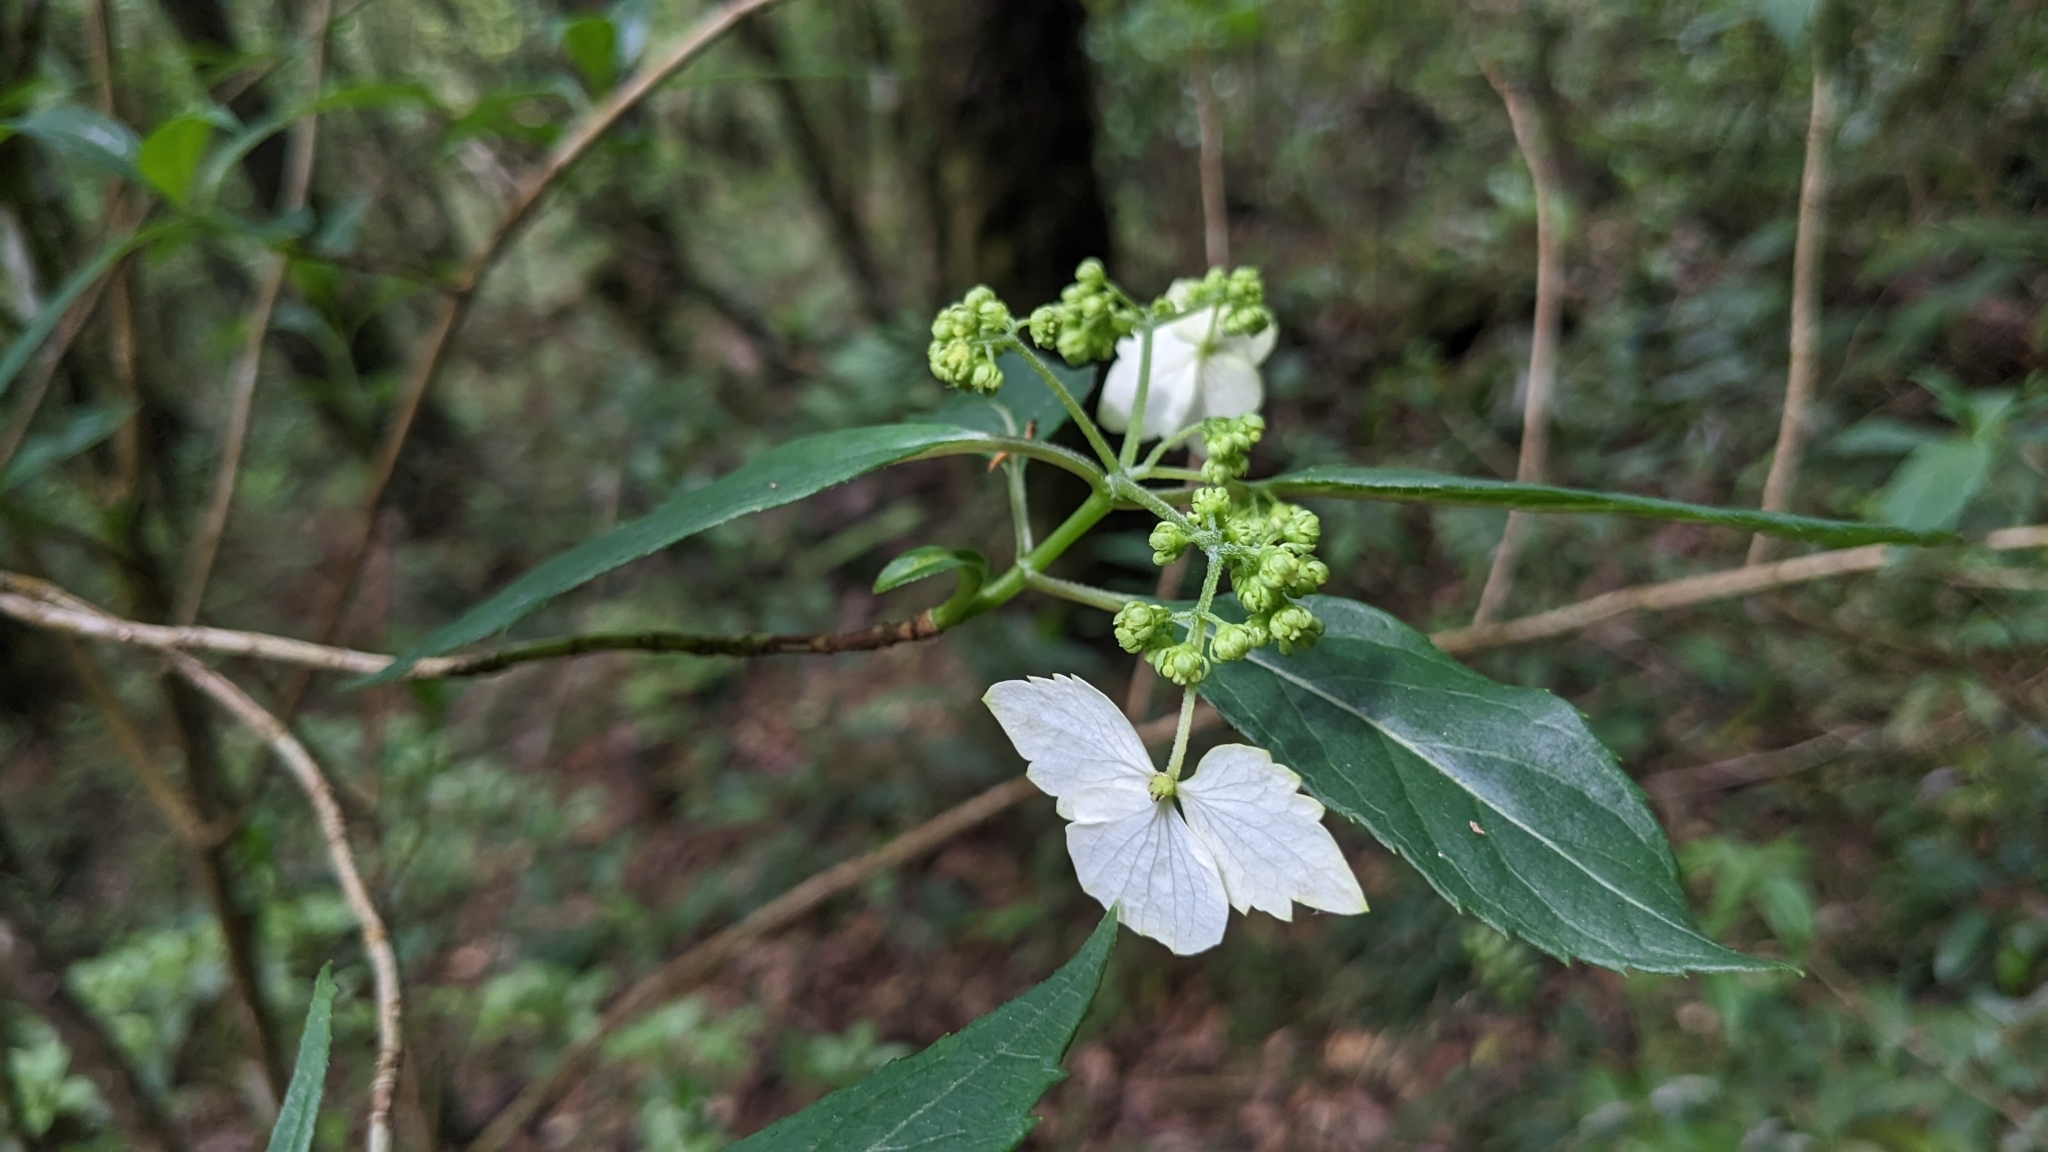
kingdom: Plantae
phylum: Tracheophyta
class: Magnoliopsida
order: Cornales
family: Hydrangeaceae
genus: Hydrangea
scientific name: Hydrangea chinensis
